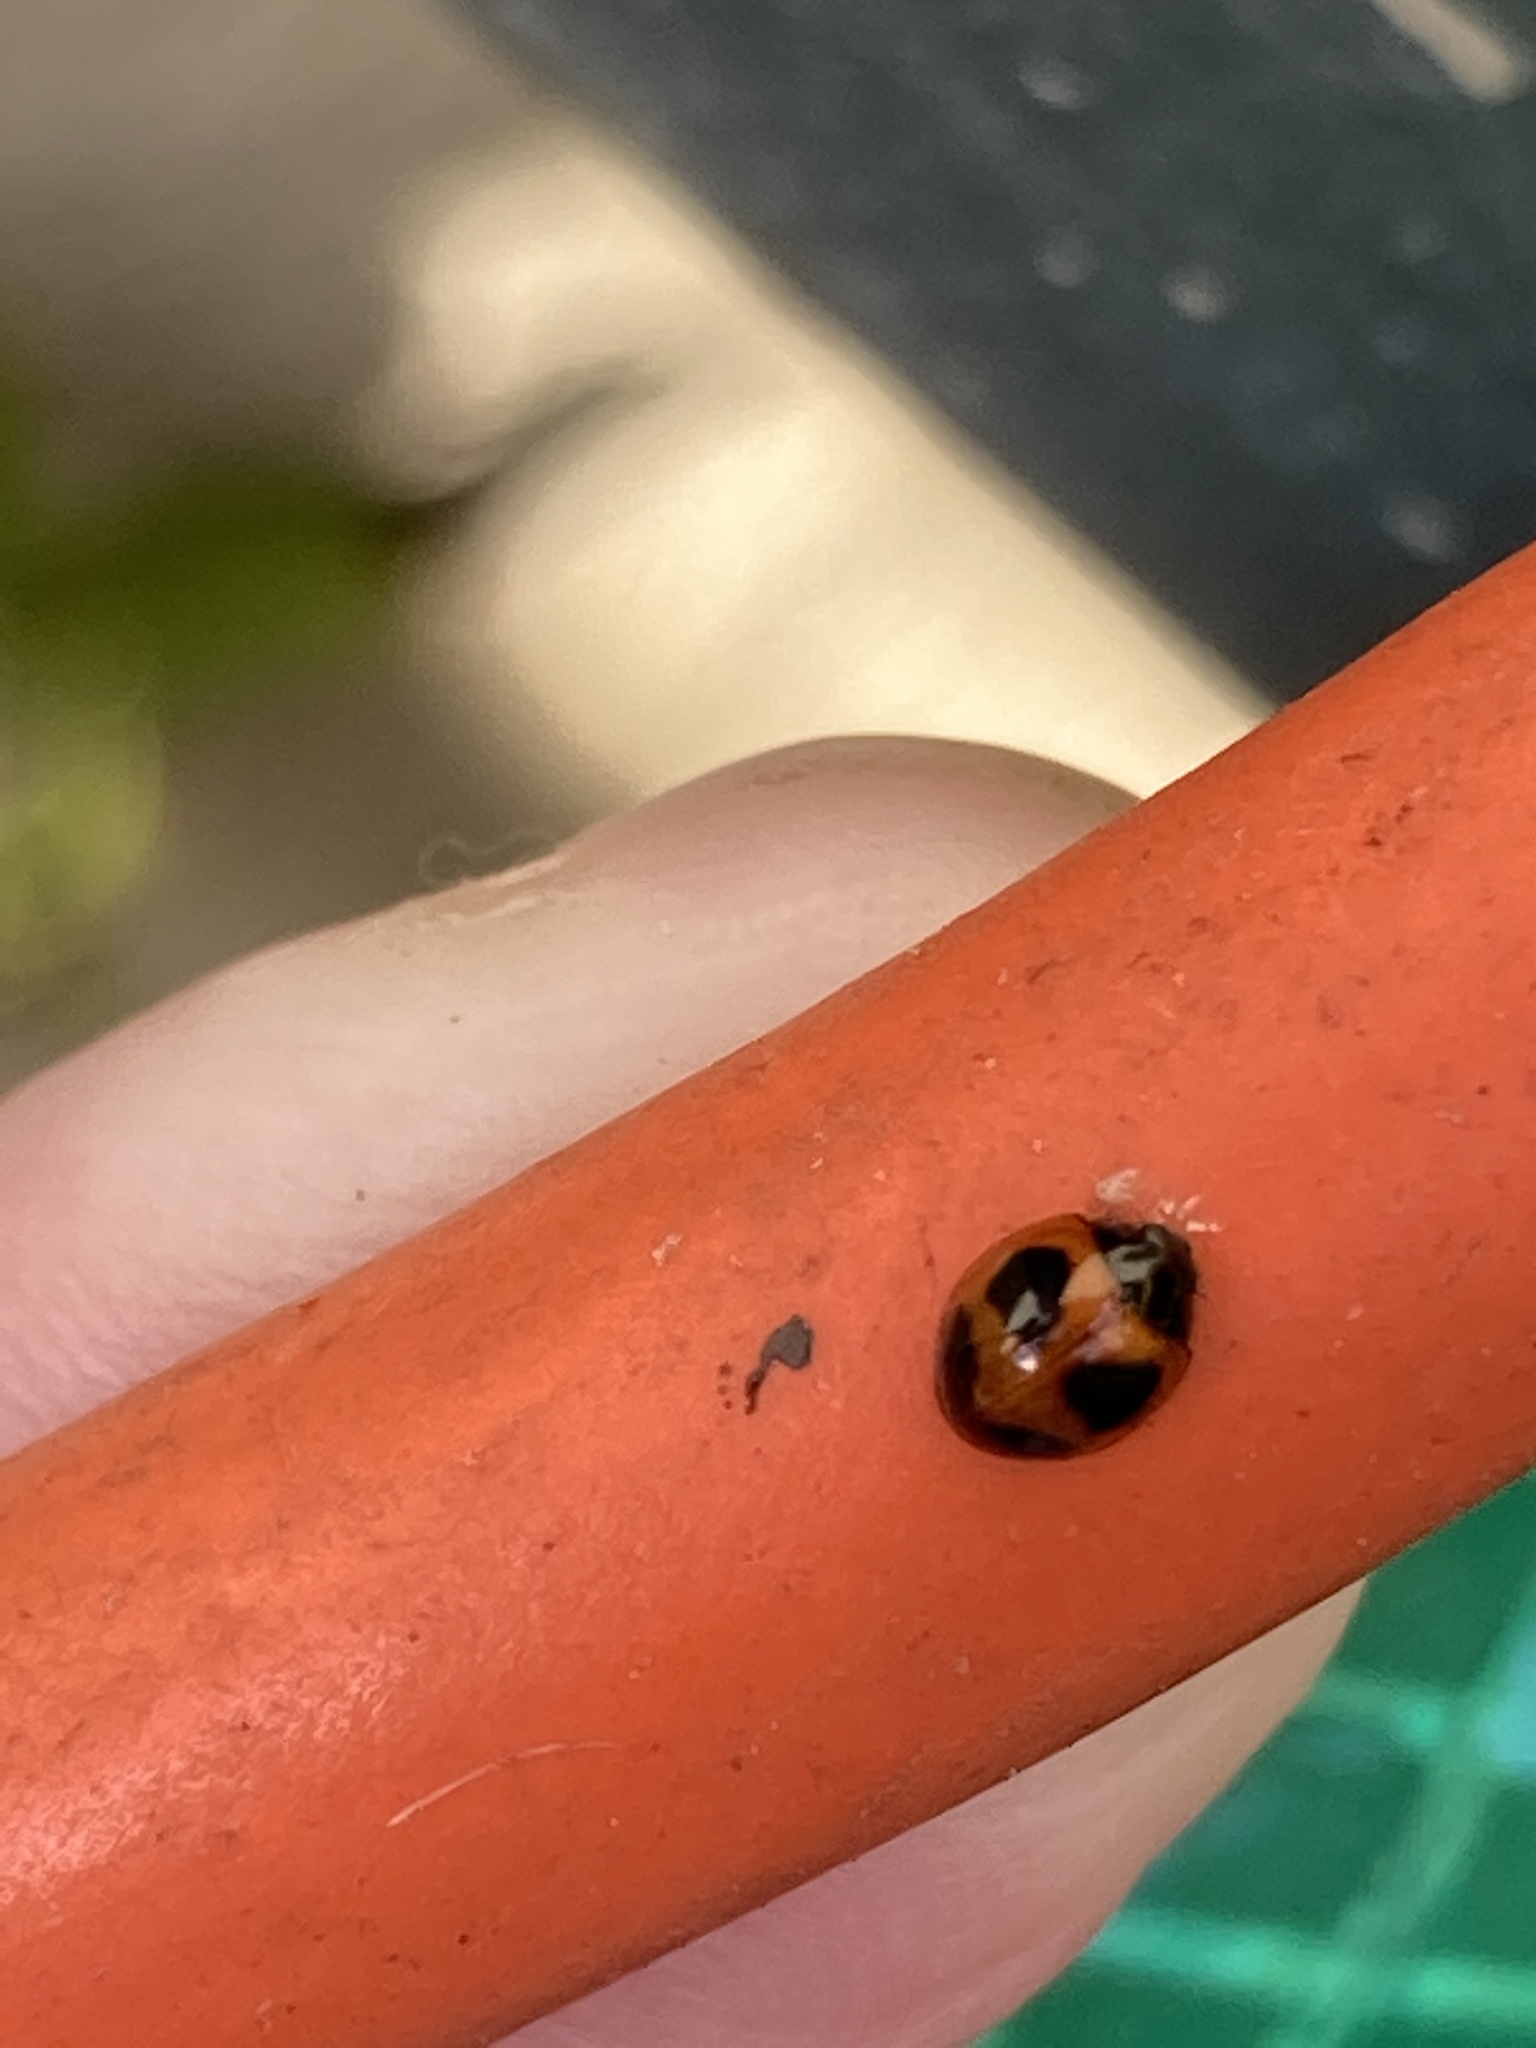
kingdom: Animalia
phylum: Arthropoda
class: Insecta
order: Coleoptera
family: Coccinellidae
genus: Exochomus
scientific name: Exochomus childreni
